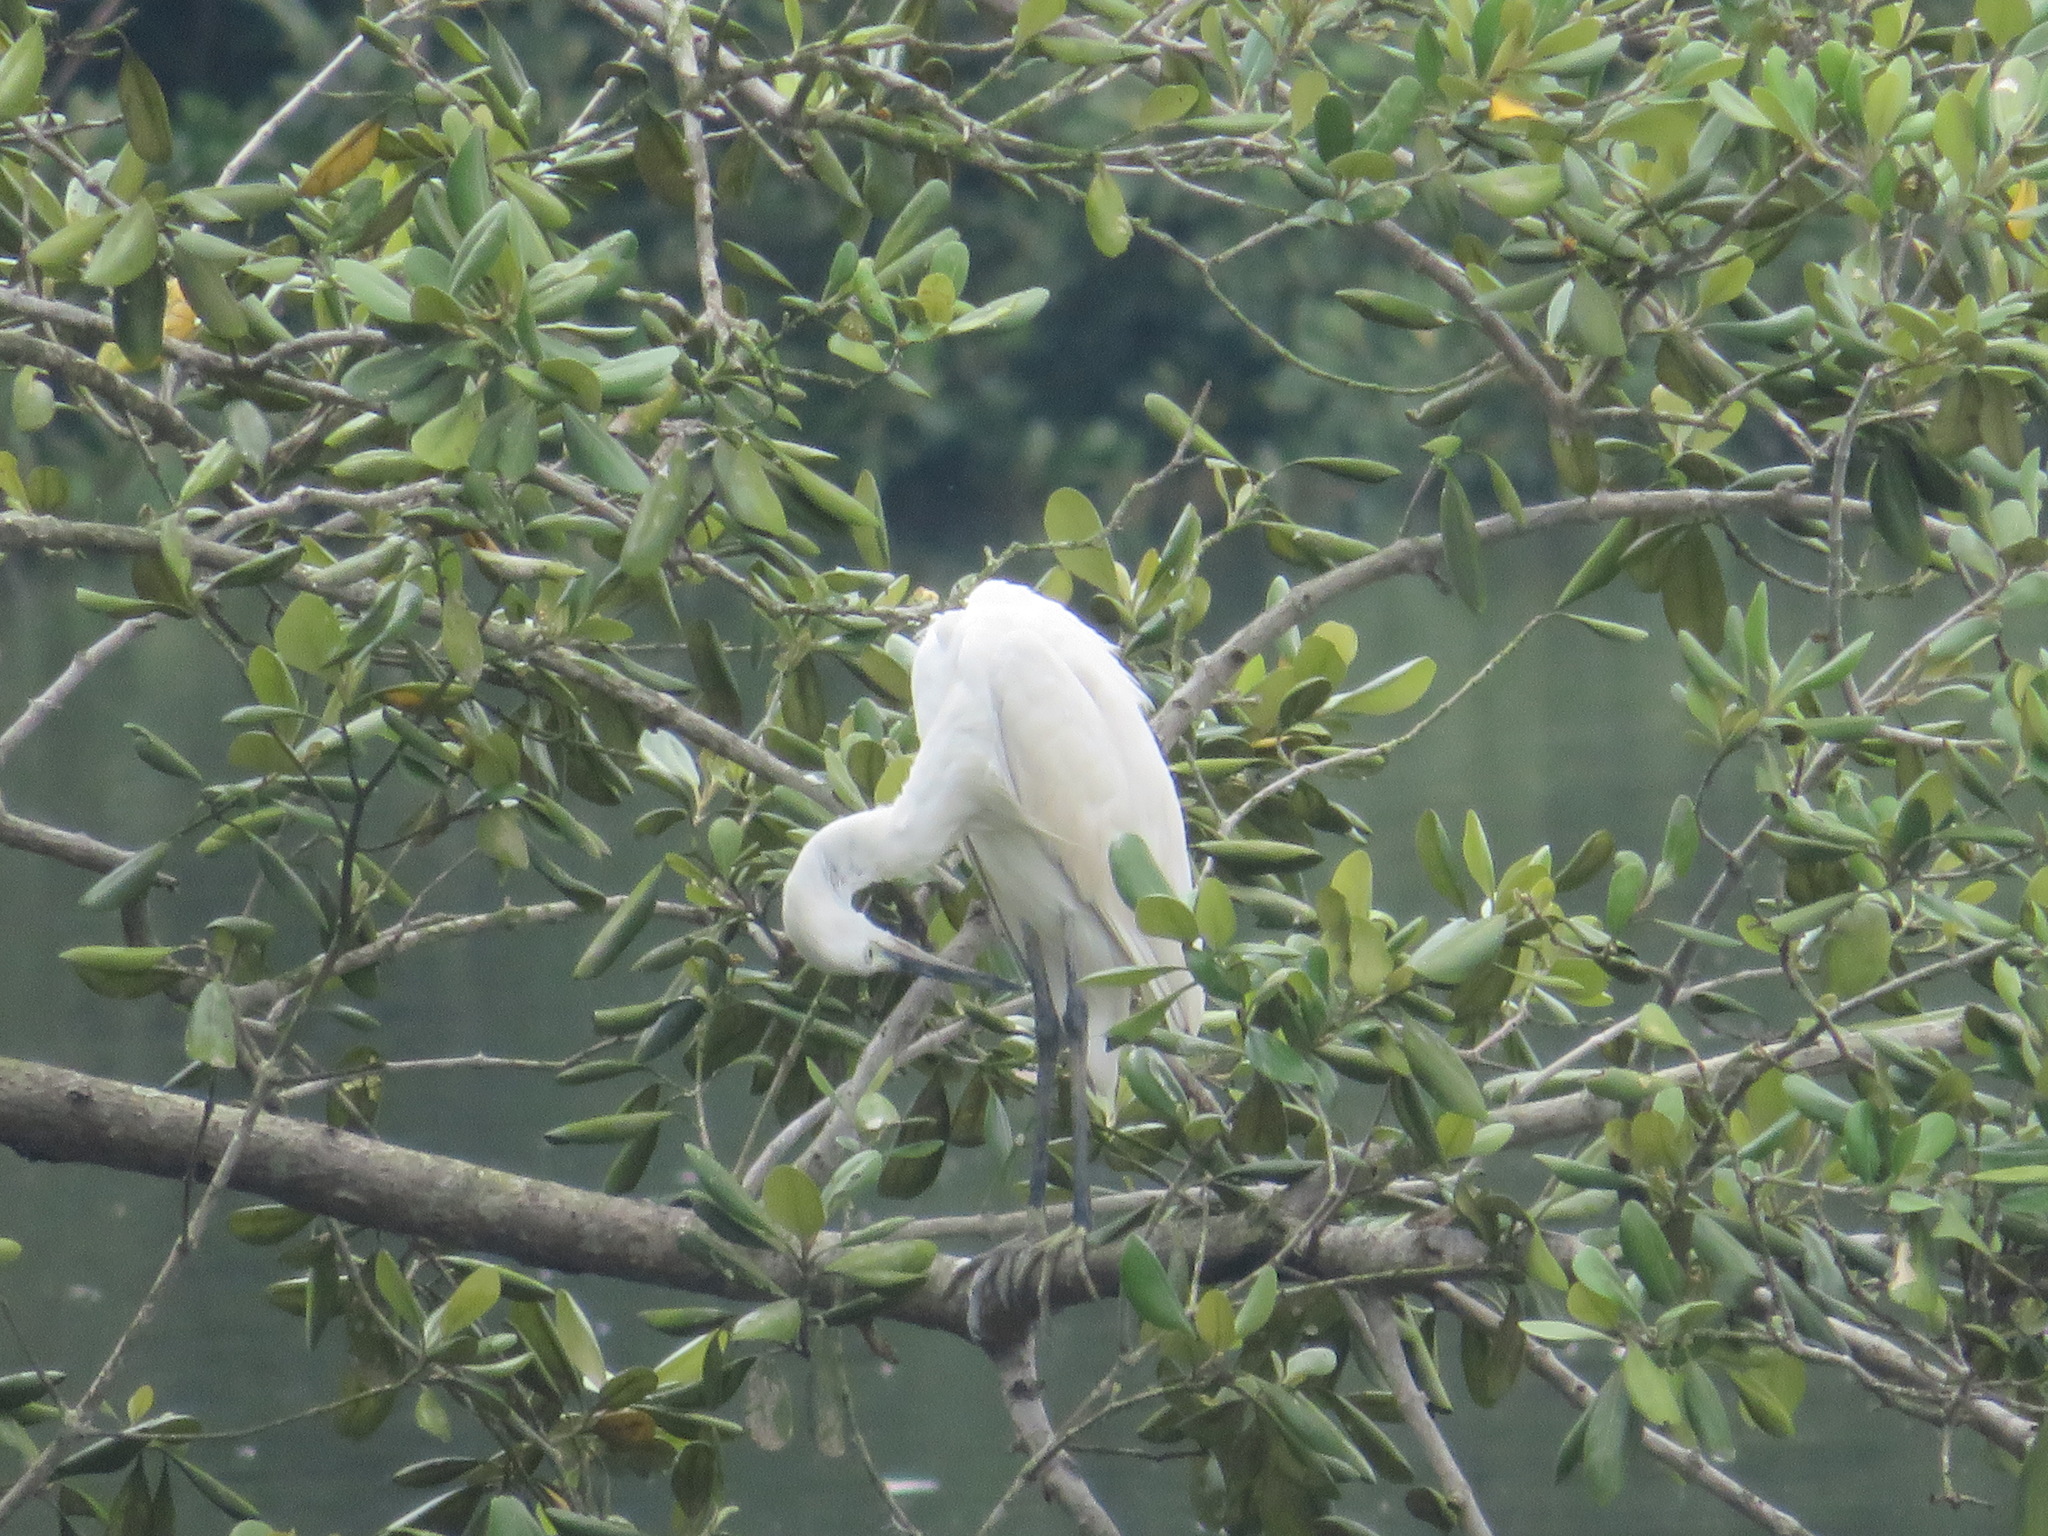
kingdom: Animalia
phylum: Chordata
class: Aves
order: Pelecaniformes
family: Ardeidae
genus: Egretta
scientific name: Egretta garzetta
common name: Little egret
